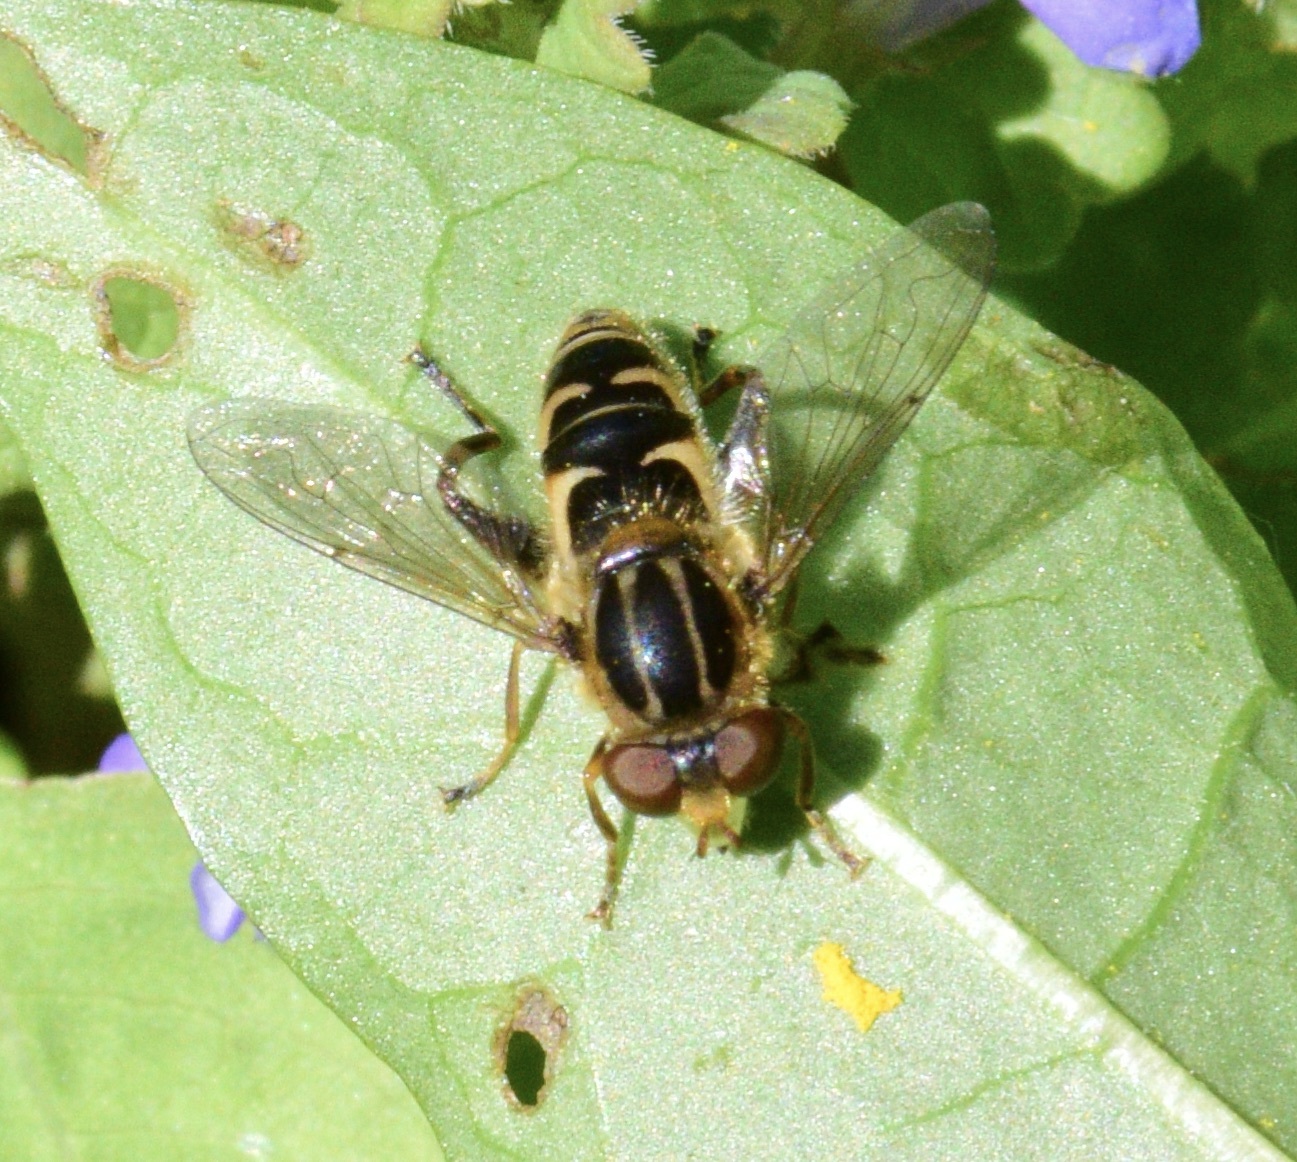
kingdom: Animalia
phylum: Arthropoda
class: Insecta
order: Diptera
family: Syrphidae
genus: Anasimyia
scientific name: Anasimyia
